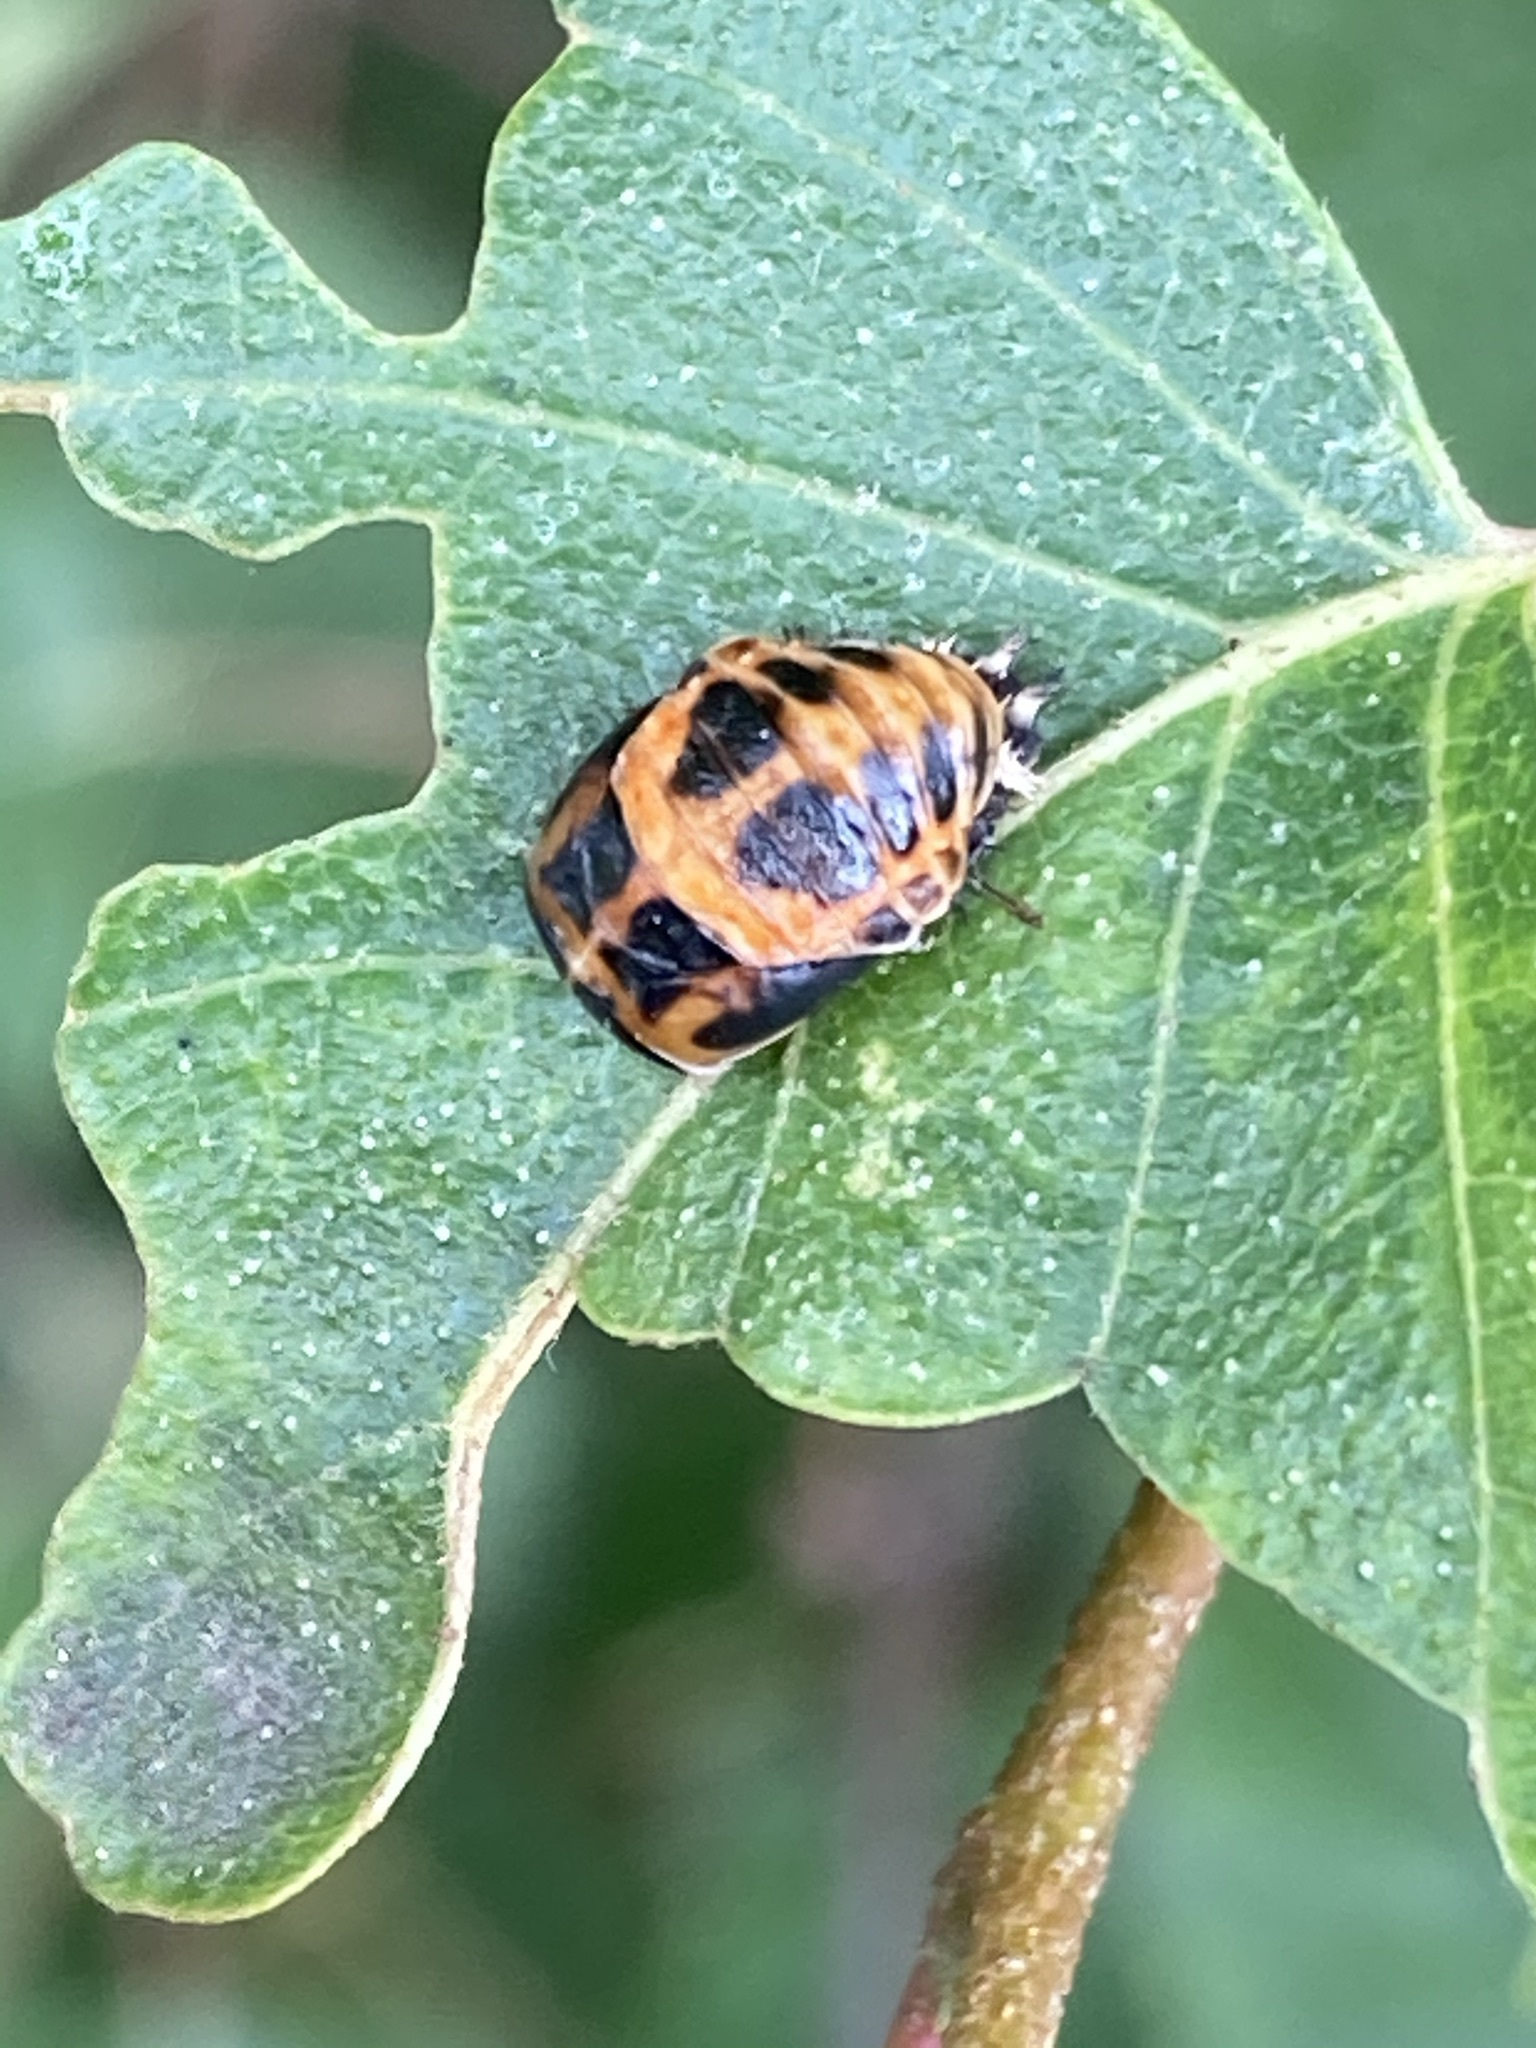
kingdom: Animalia
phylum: Arthropoda
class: Insecta
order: Coleoptera
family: Coccinellidae
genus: Harmonia
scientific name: Harmonia axyridis
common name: Harlequin ladybird
